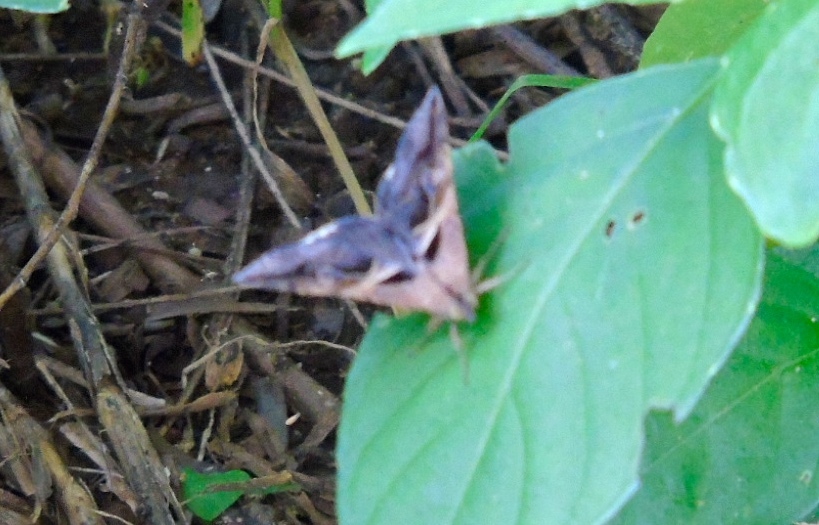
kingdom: Animalia
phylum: Arthropoda
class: Insecta
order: Lepidoptera
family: Erebidae
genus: Melipotis
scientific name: Melipotis cellaris
